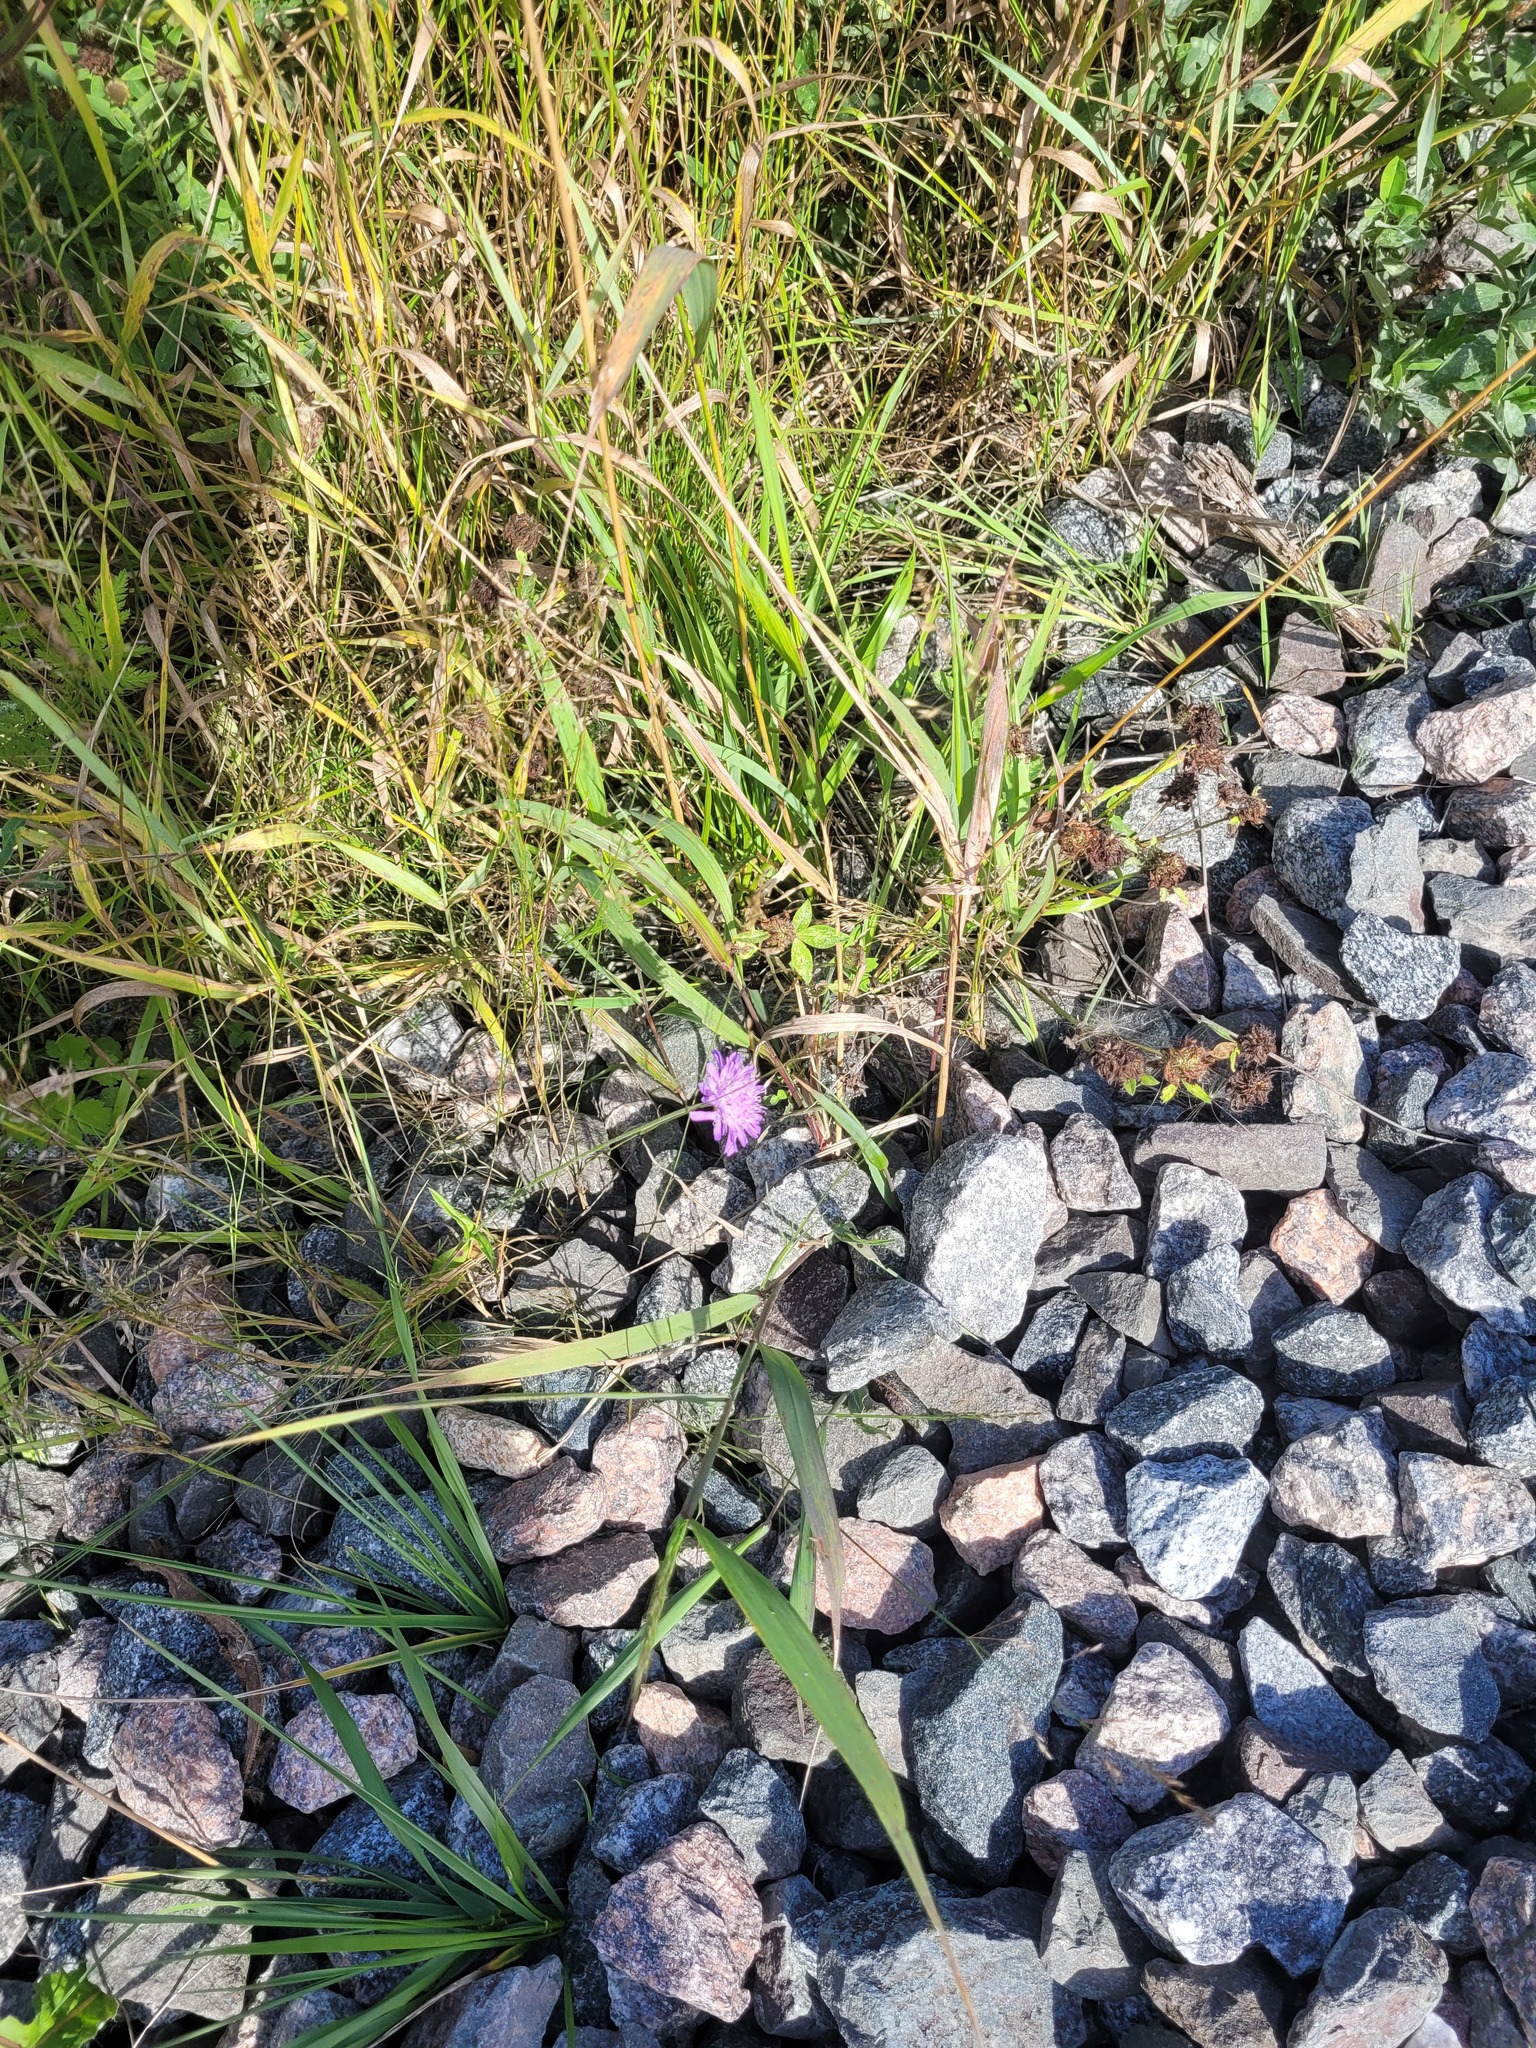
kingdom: Plantae
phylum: Tracheophyta
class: Magnoliopsida
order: Dipsacales
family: Caprifoliaceae
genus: Knautia
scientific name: Knautia arvensis
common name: Field scabiosa
